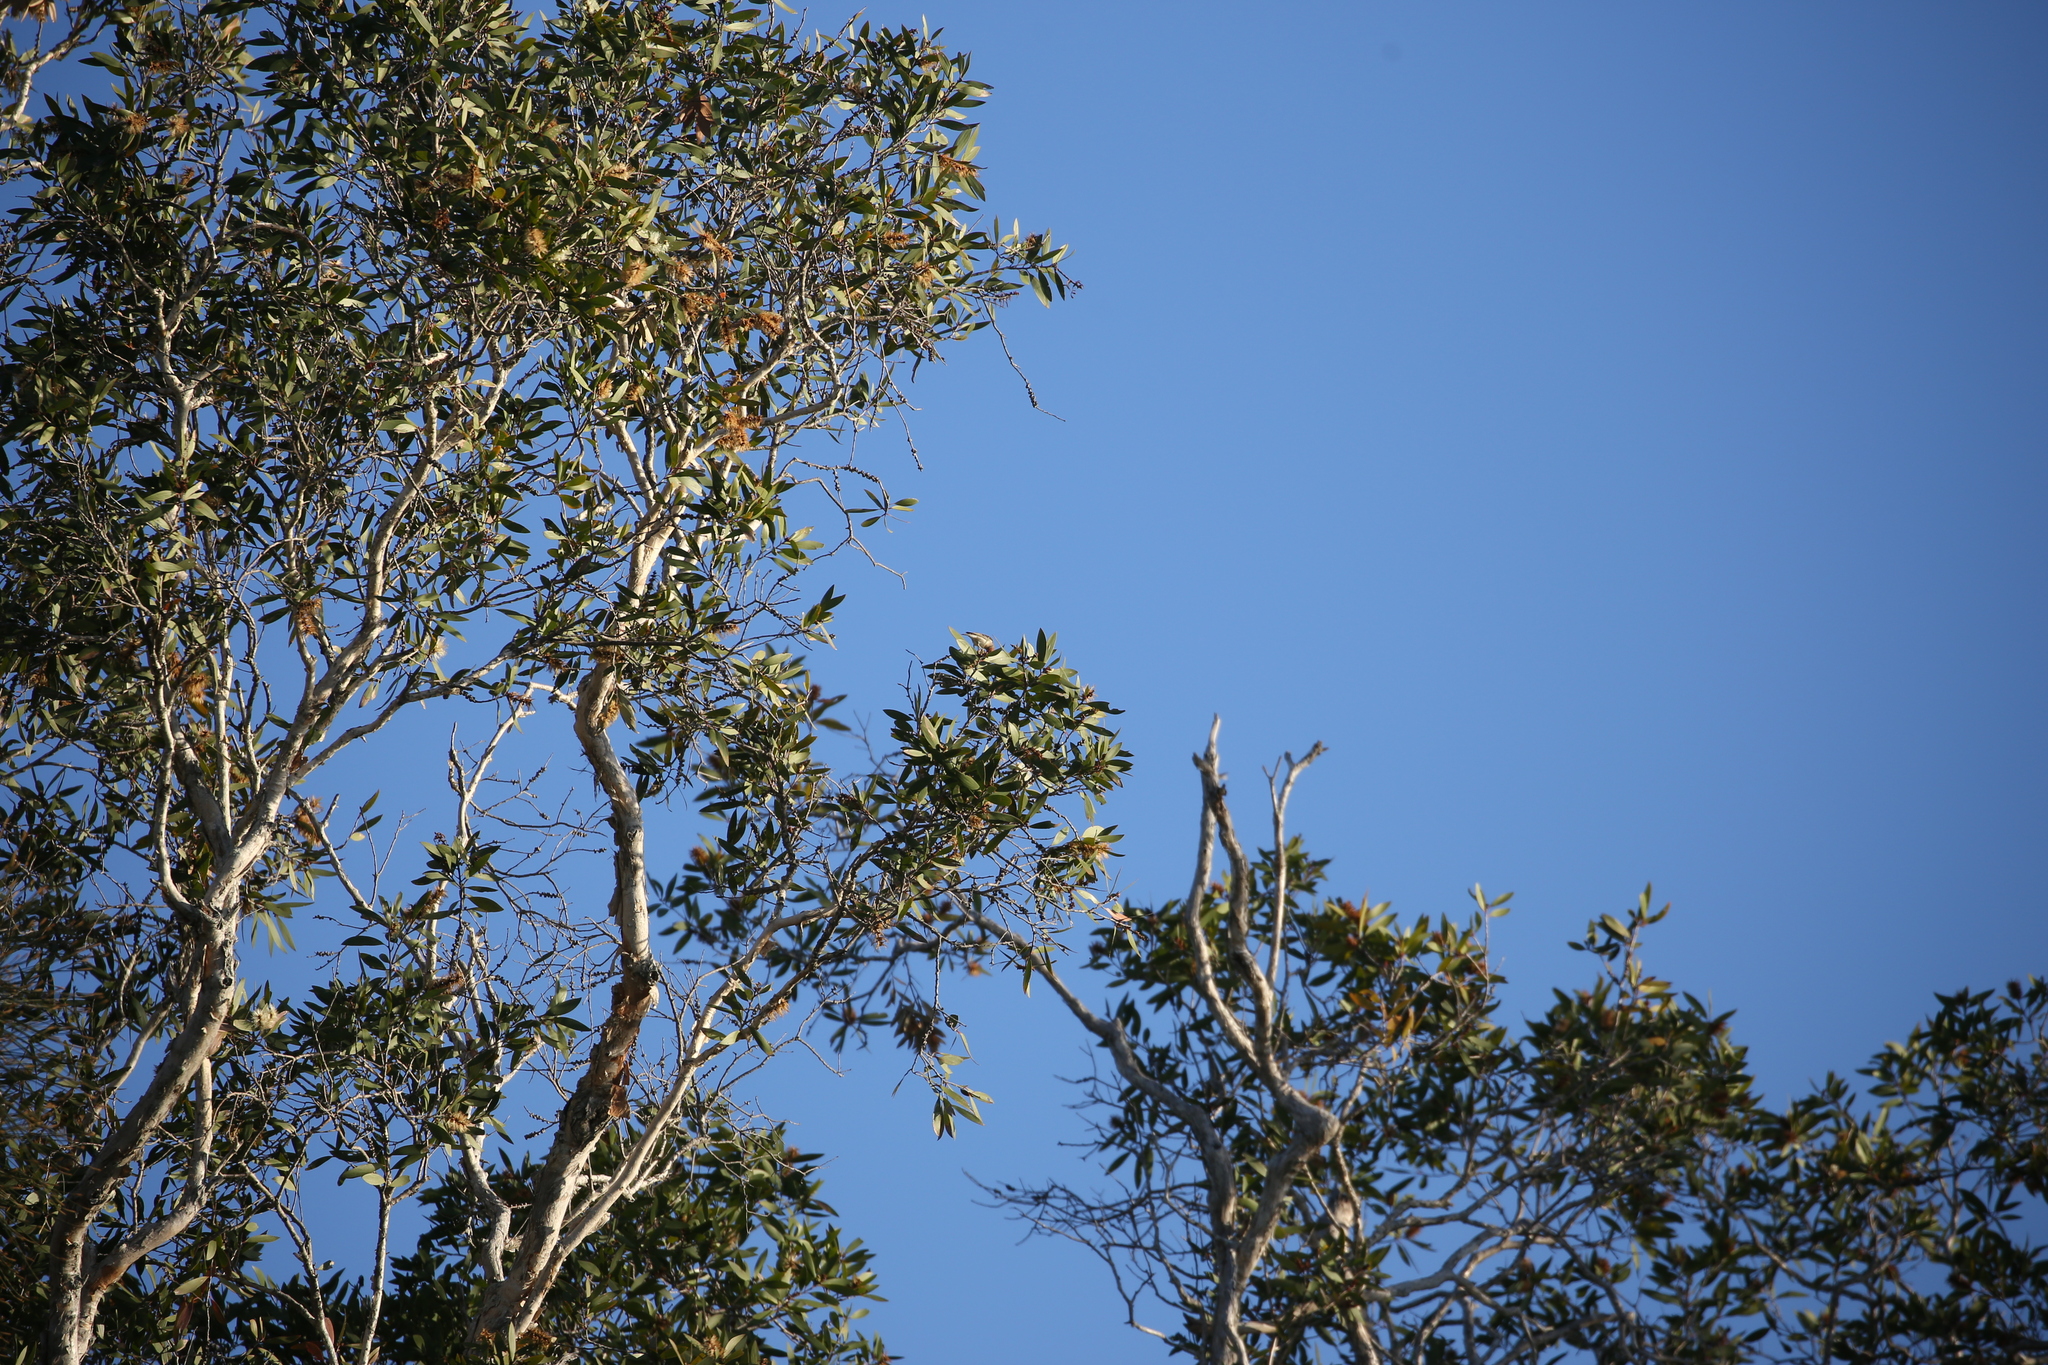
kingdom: Animalia
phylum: Chordata
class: Aves
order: Passeriformes
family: Meliphagidae
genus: Myzomela
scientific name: Myzomela sanguinolenta
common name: Scarlet myzomela
